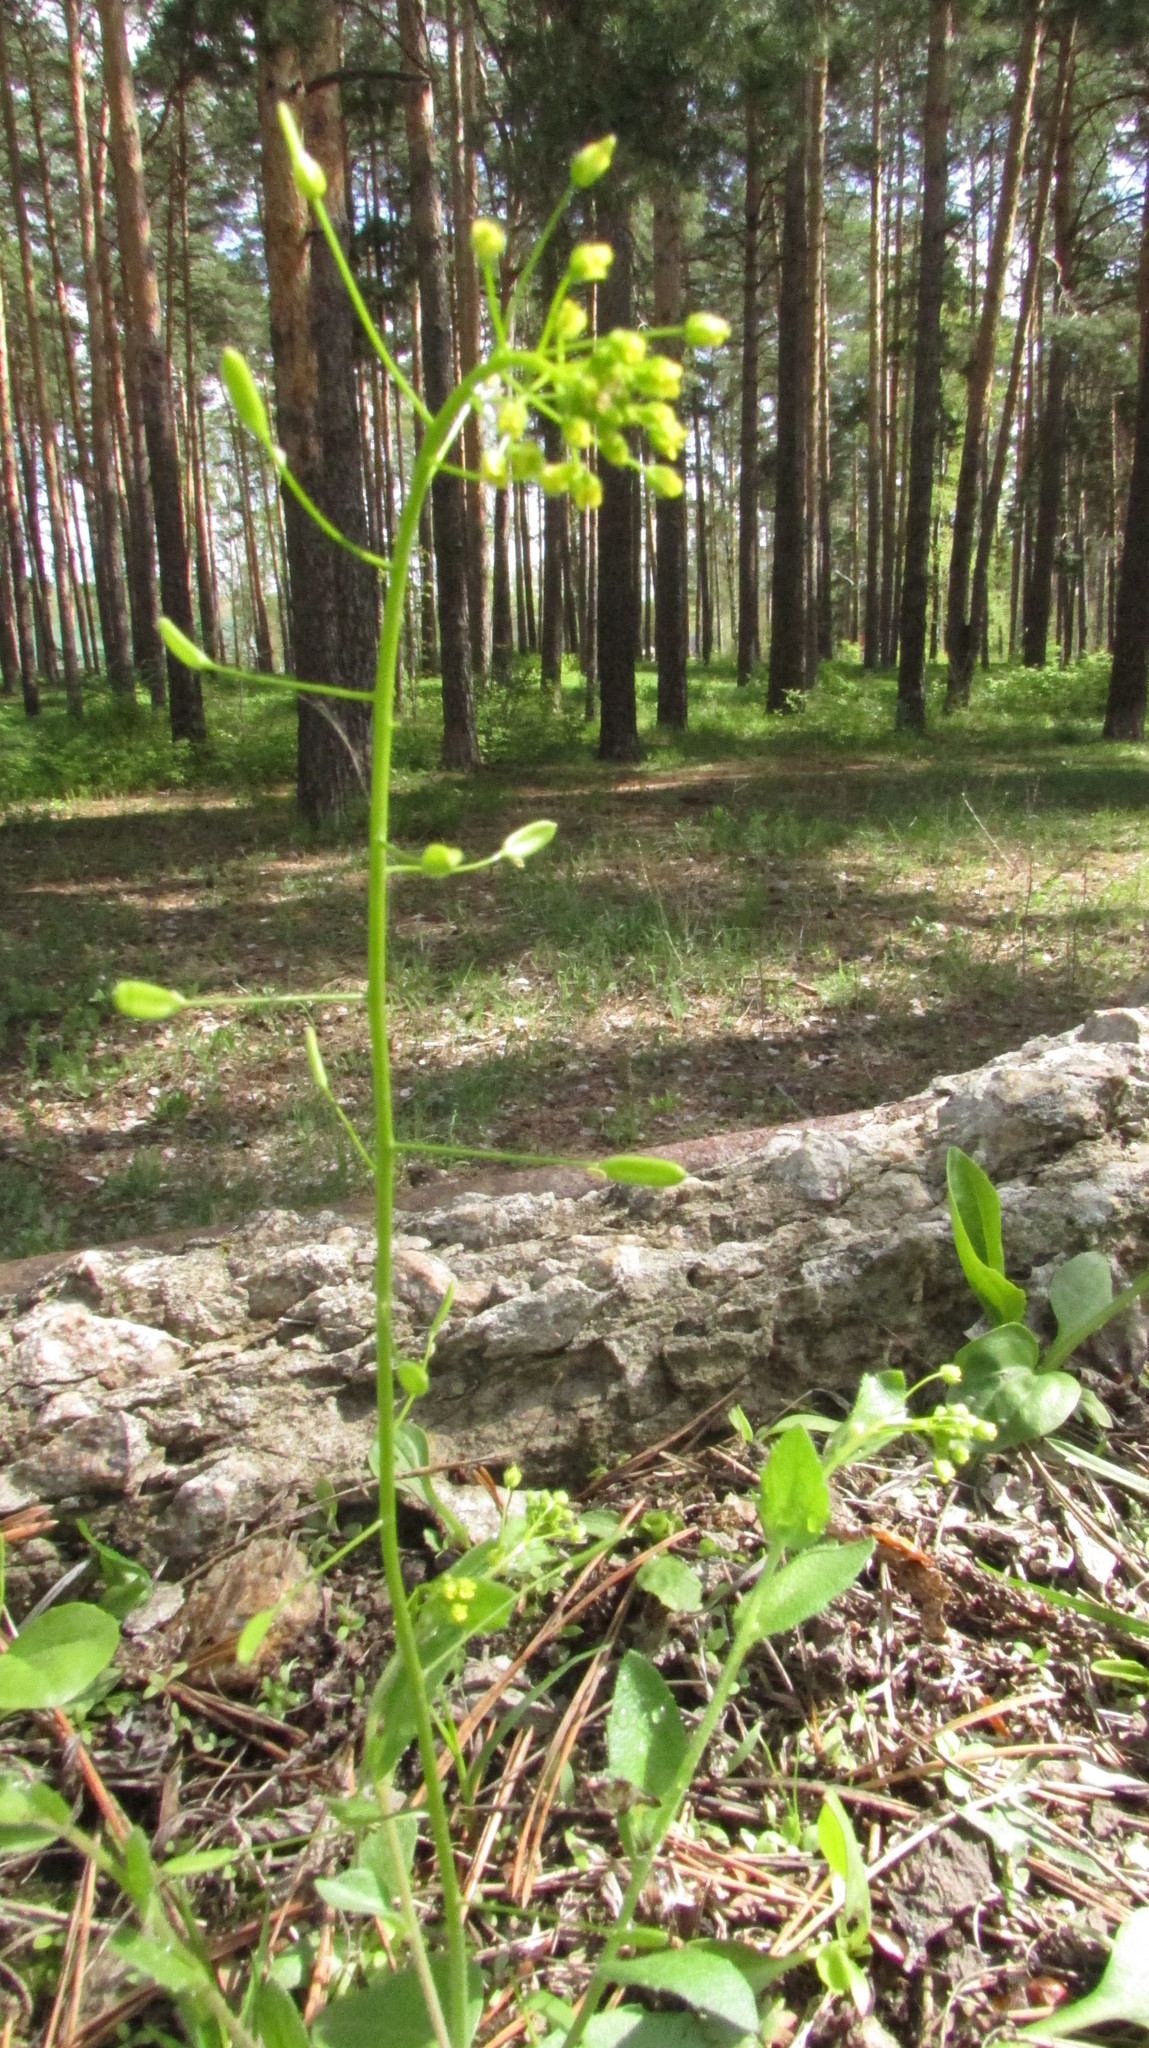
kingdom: Plantae
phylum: Tracheophyta
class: Magnoliopsida
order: Brassicales
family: Brassicaceae
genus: Draba
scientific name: Draba nemorosa
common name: Wood whitlow-grass
